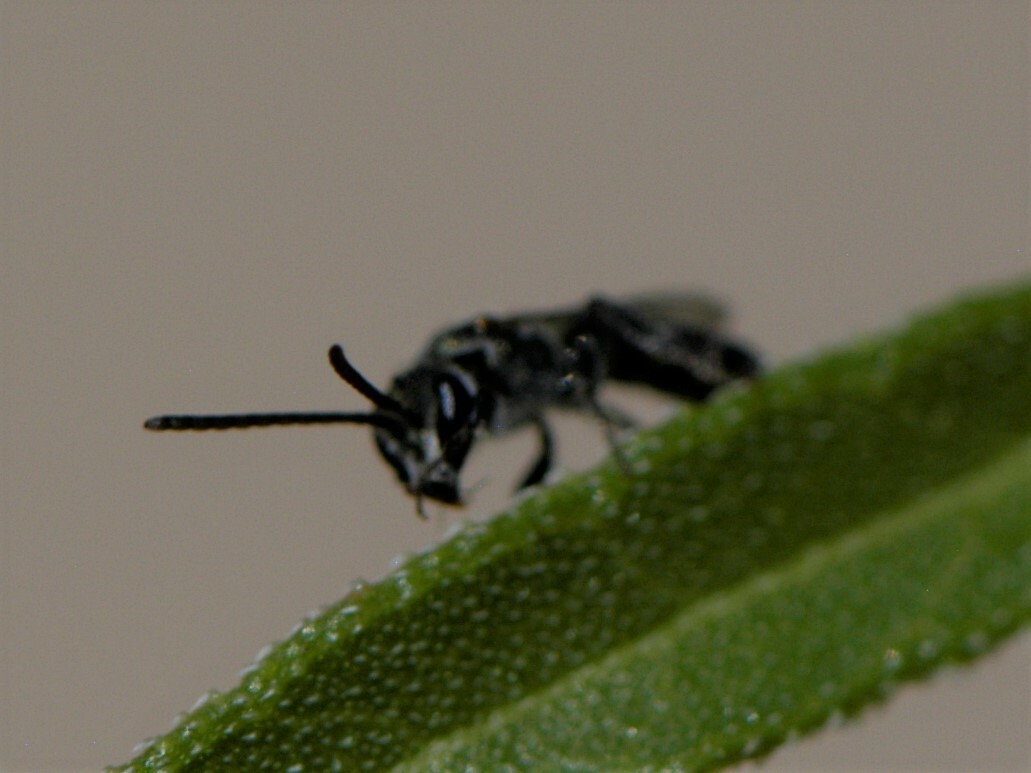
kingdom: Animalia
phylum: Arthropoda
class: Insecta
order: Hymenoptera
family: Halictidae
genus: Lasioglossum
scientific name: Lasioglossum
